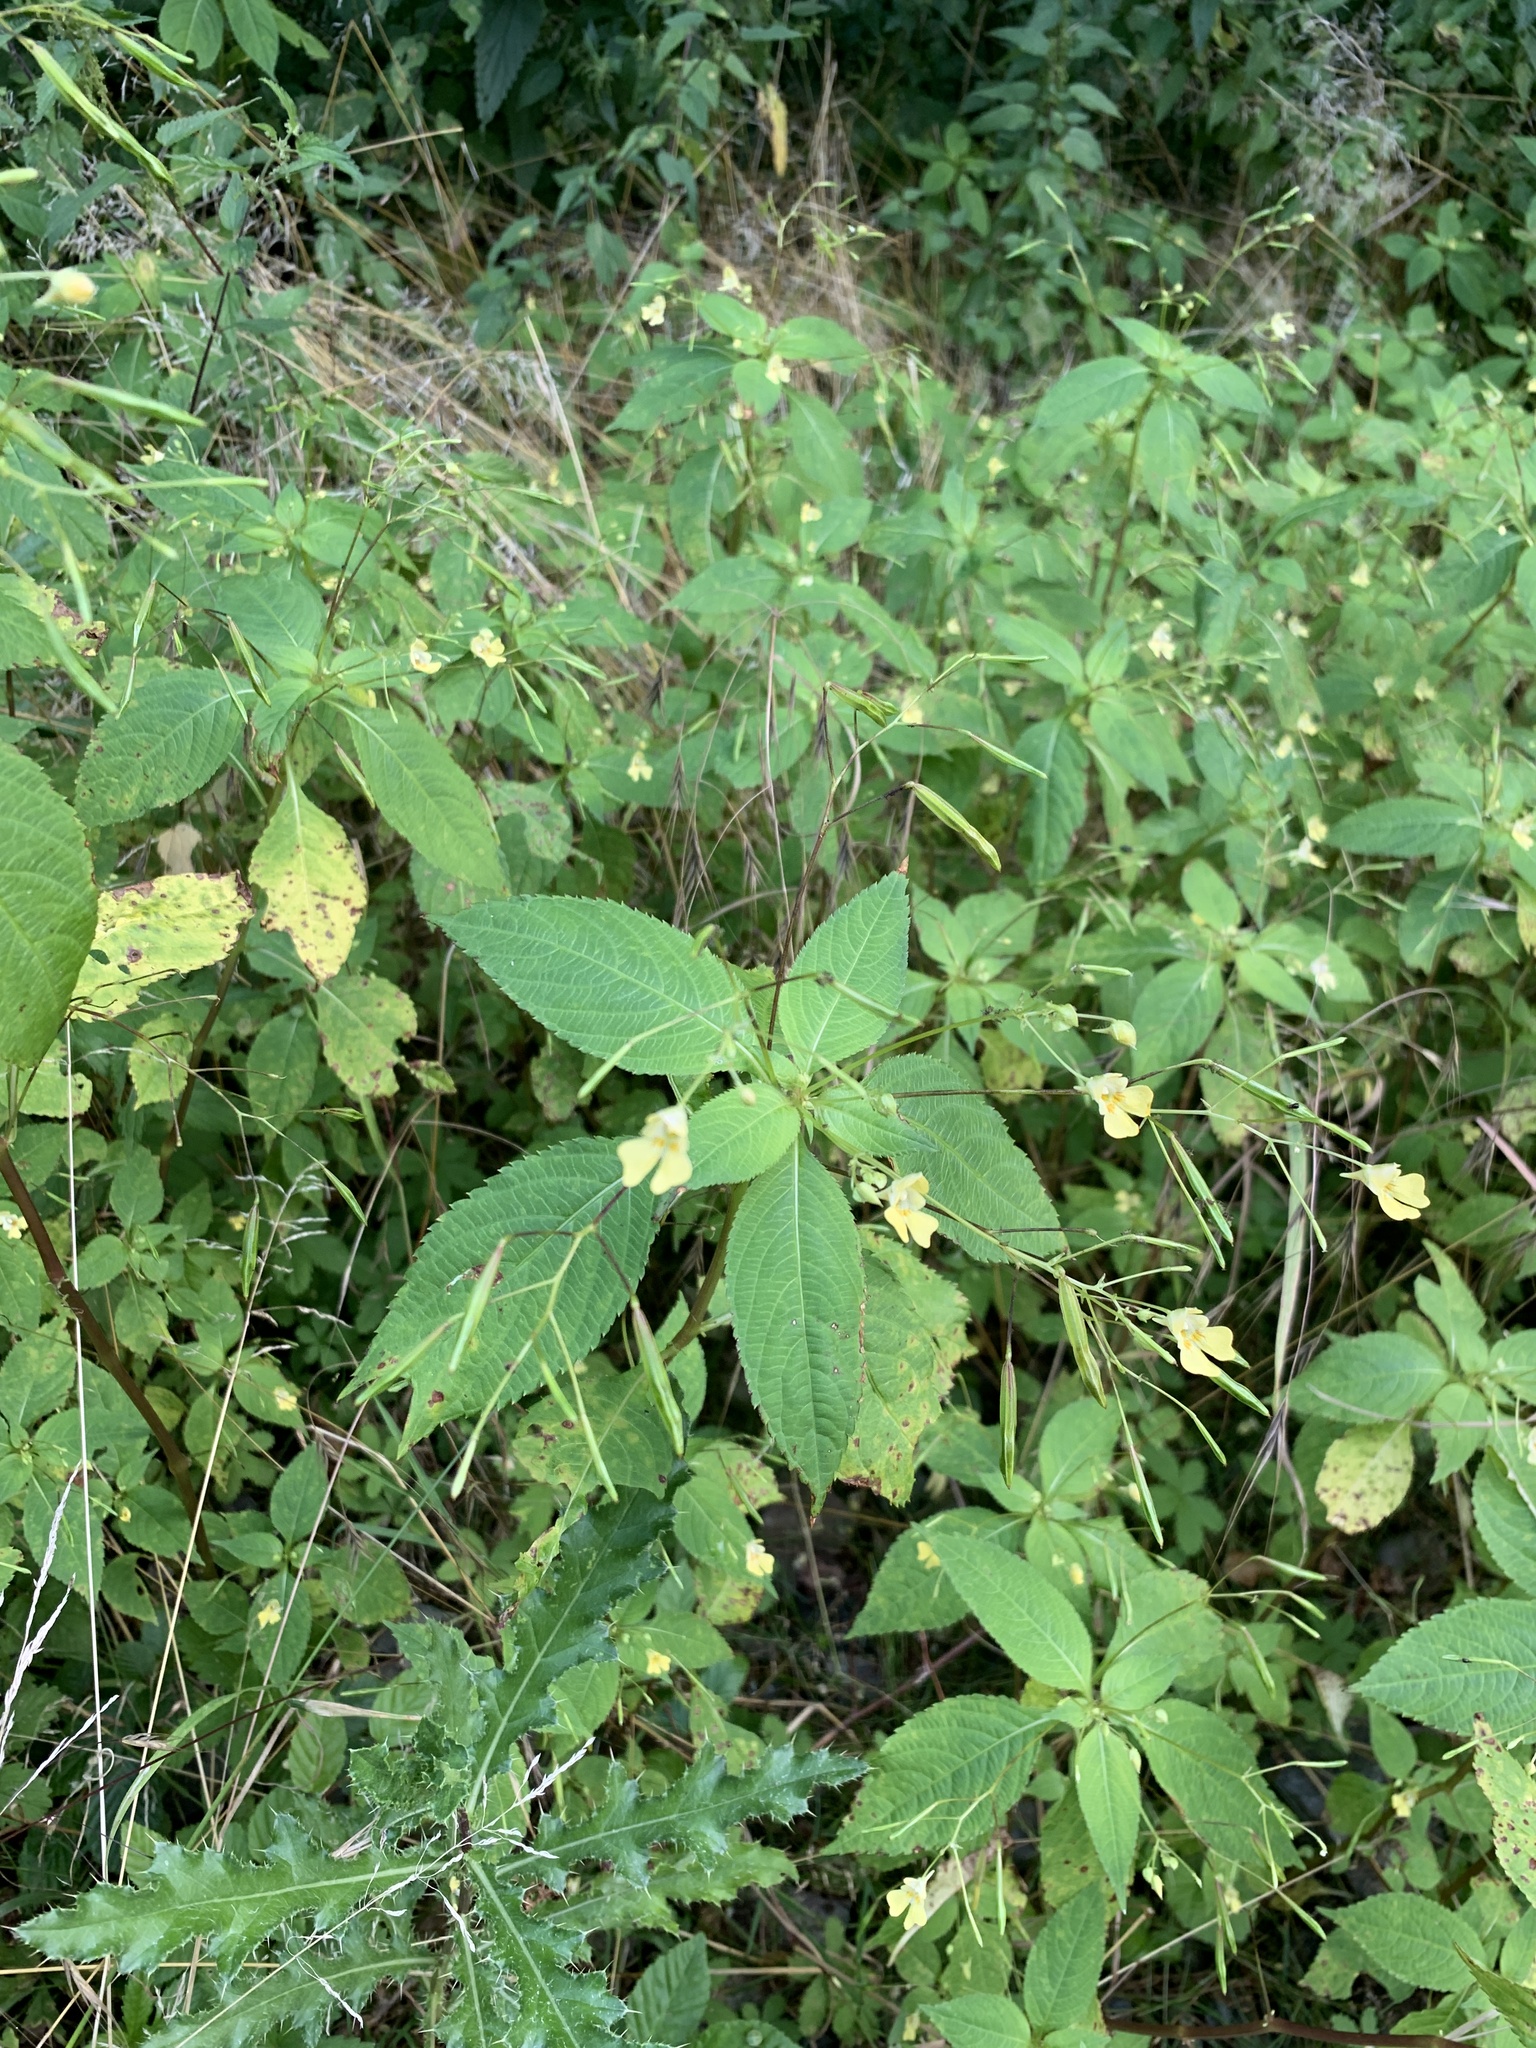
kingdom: Plantae
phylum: Tracheophyta
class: Magnoliopsida
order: Ericales
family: Balsaminaceae
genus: Impatiens
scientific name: Impatiens parviflora
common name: Small balsam
